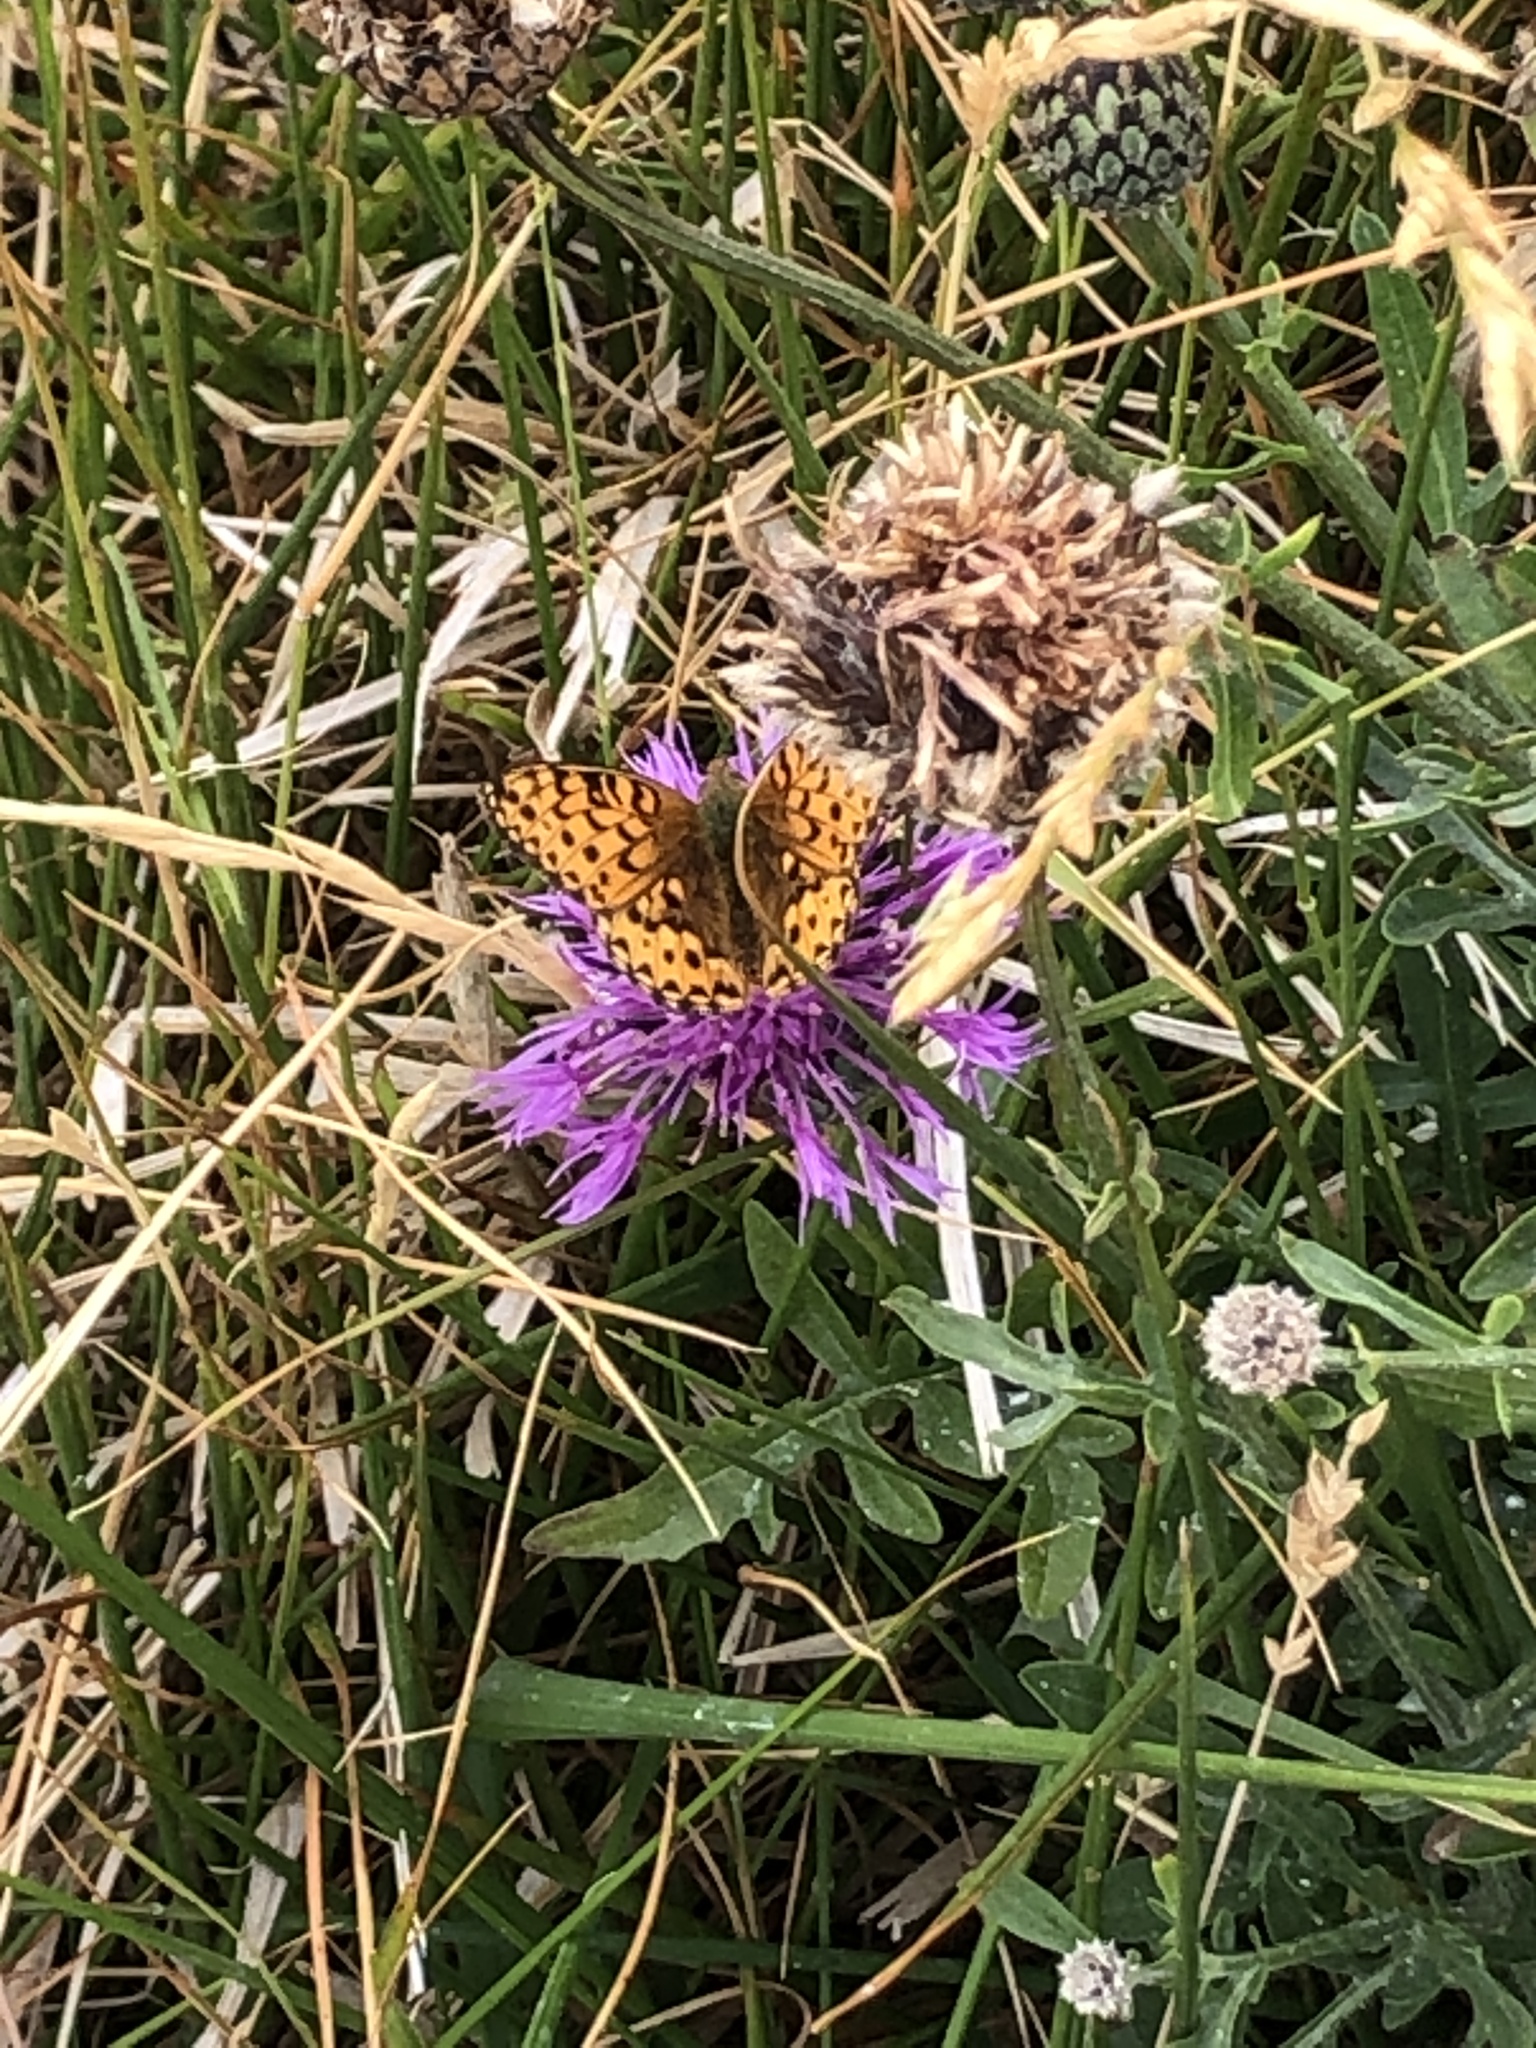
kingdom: Animalia
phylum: Arthropoda
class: Insecta
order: Lepidoptera
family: Nymphalidae
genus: Speyeria
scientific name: Speyeria aglaja
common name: Dark green fritillary
